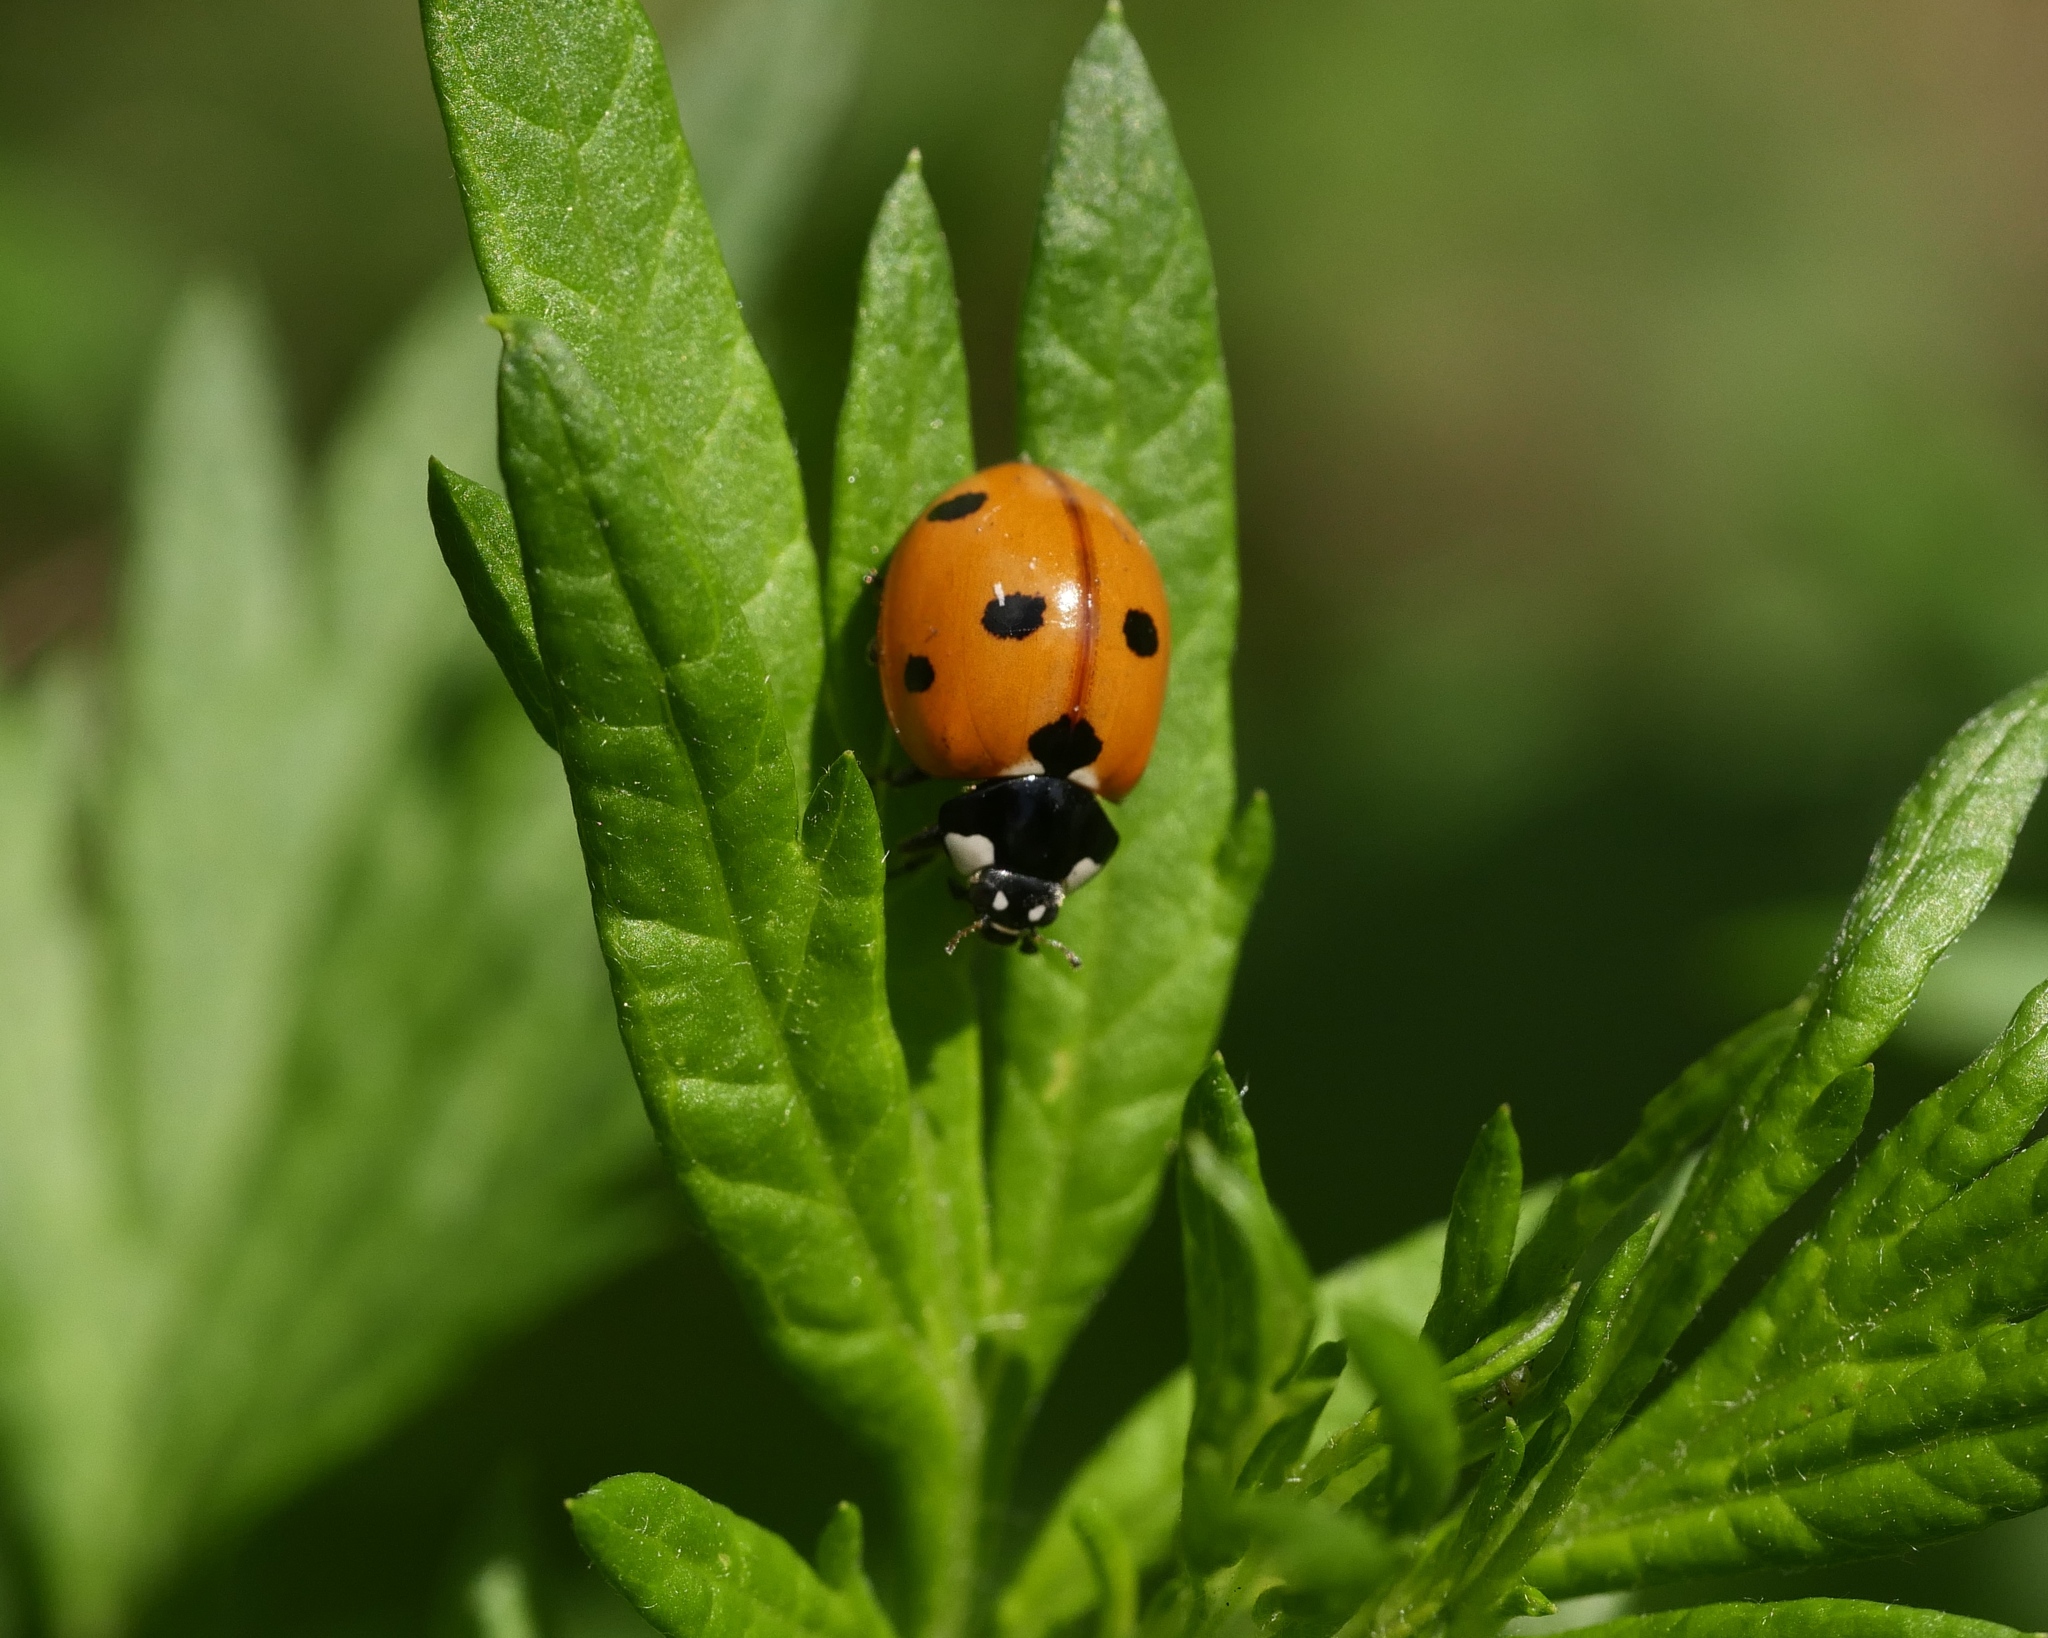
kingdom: Animalia
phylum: Arthropoda
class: Insecta
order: Coleoptera
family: Coccinellidae
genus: Coccinella
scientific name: Coccinella septempunctata
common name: Sevenspotted lady beetle
